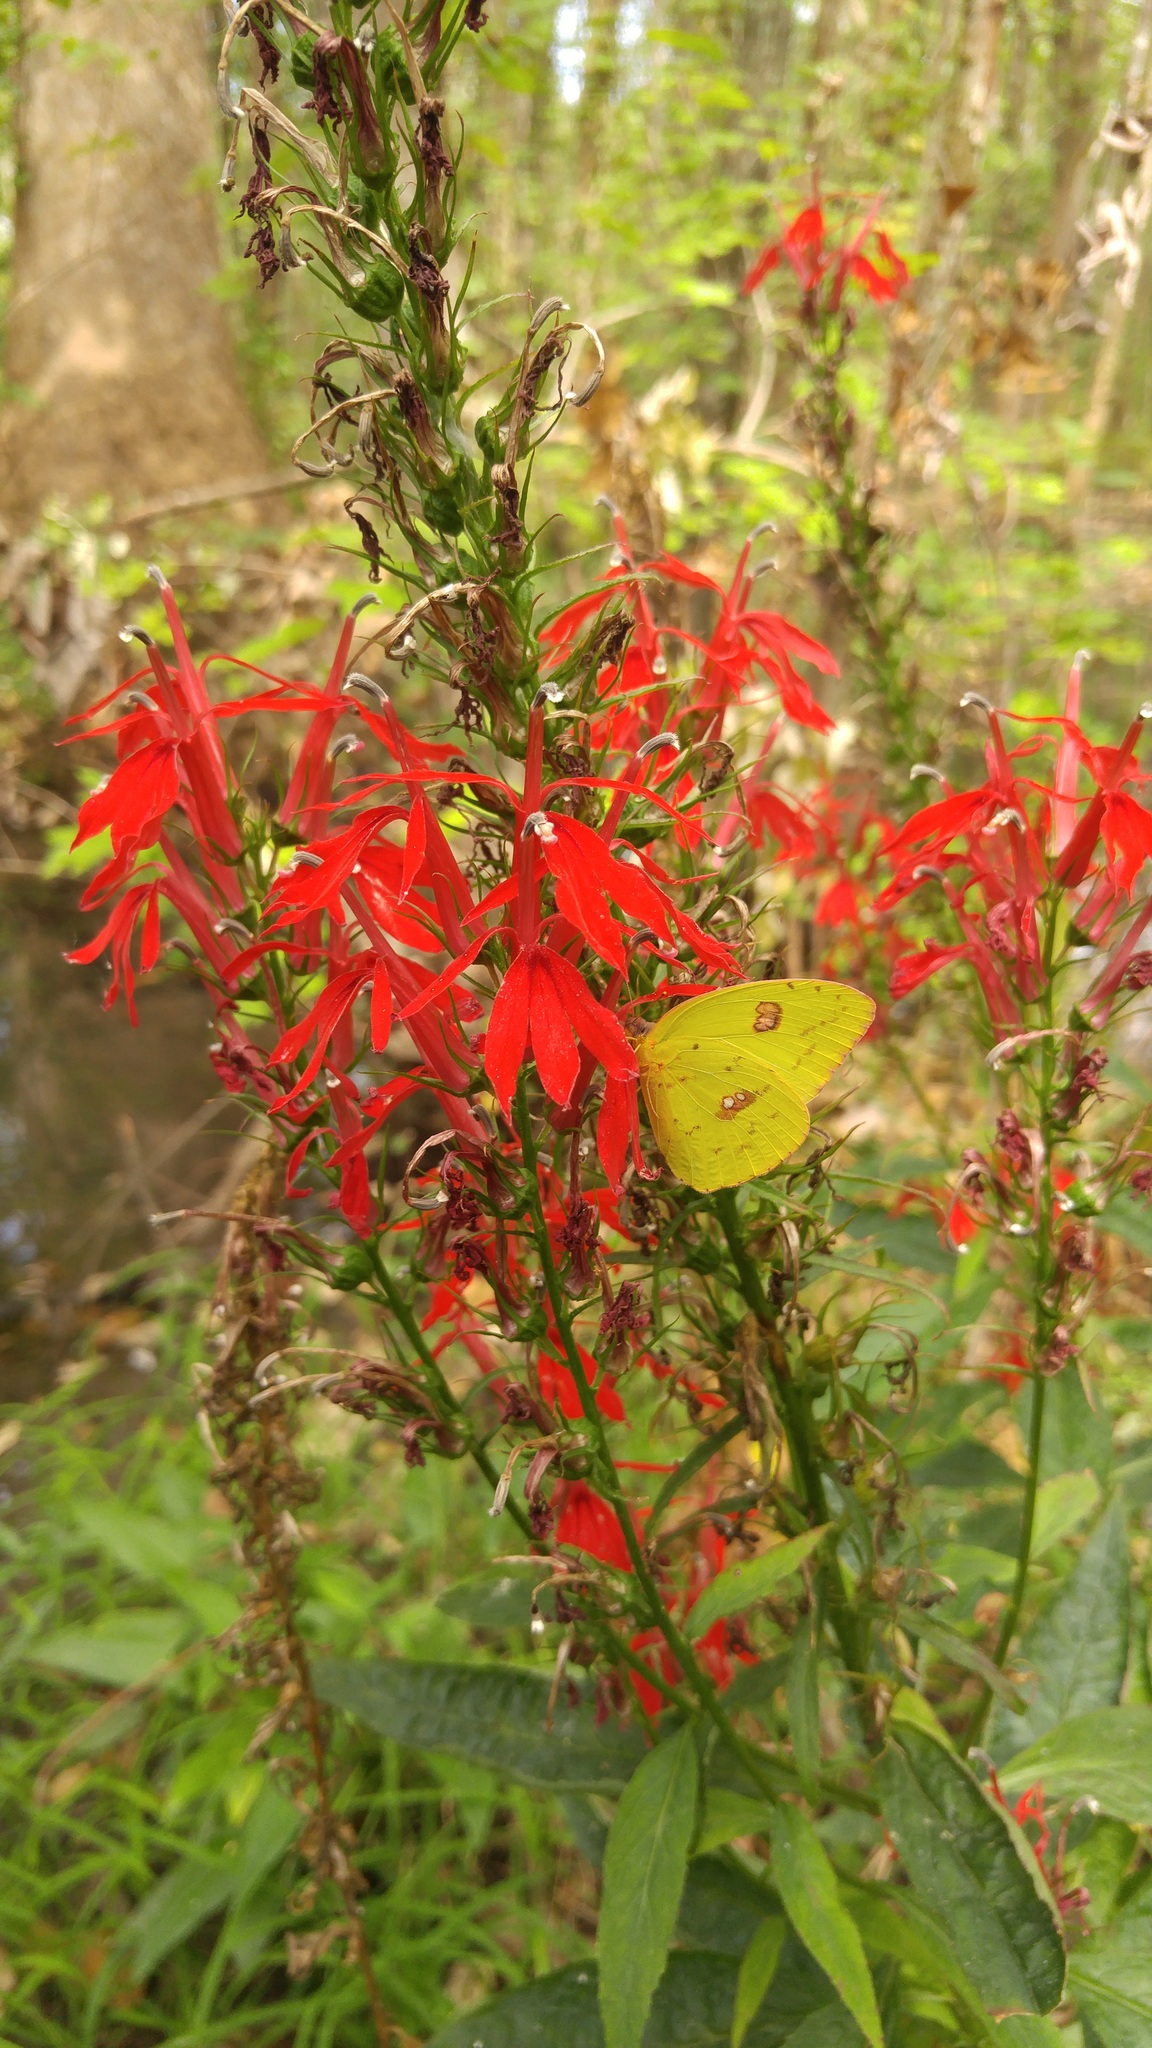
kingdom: Plantae
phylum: Tracheophyta
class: Magnoliopsida
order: Asterales
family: Campanulaceae
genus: Lobelia
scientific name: Lobelia cardinalis
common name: Cardinal flower
